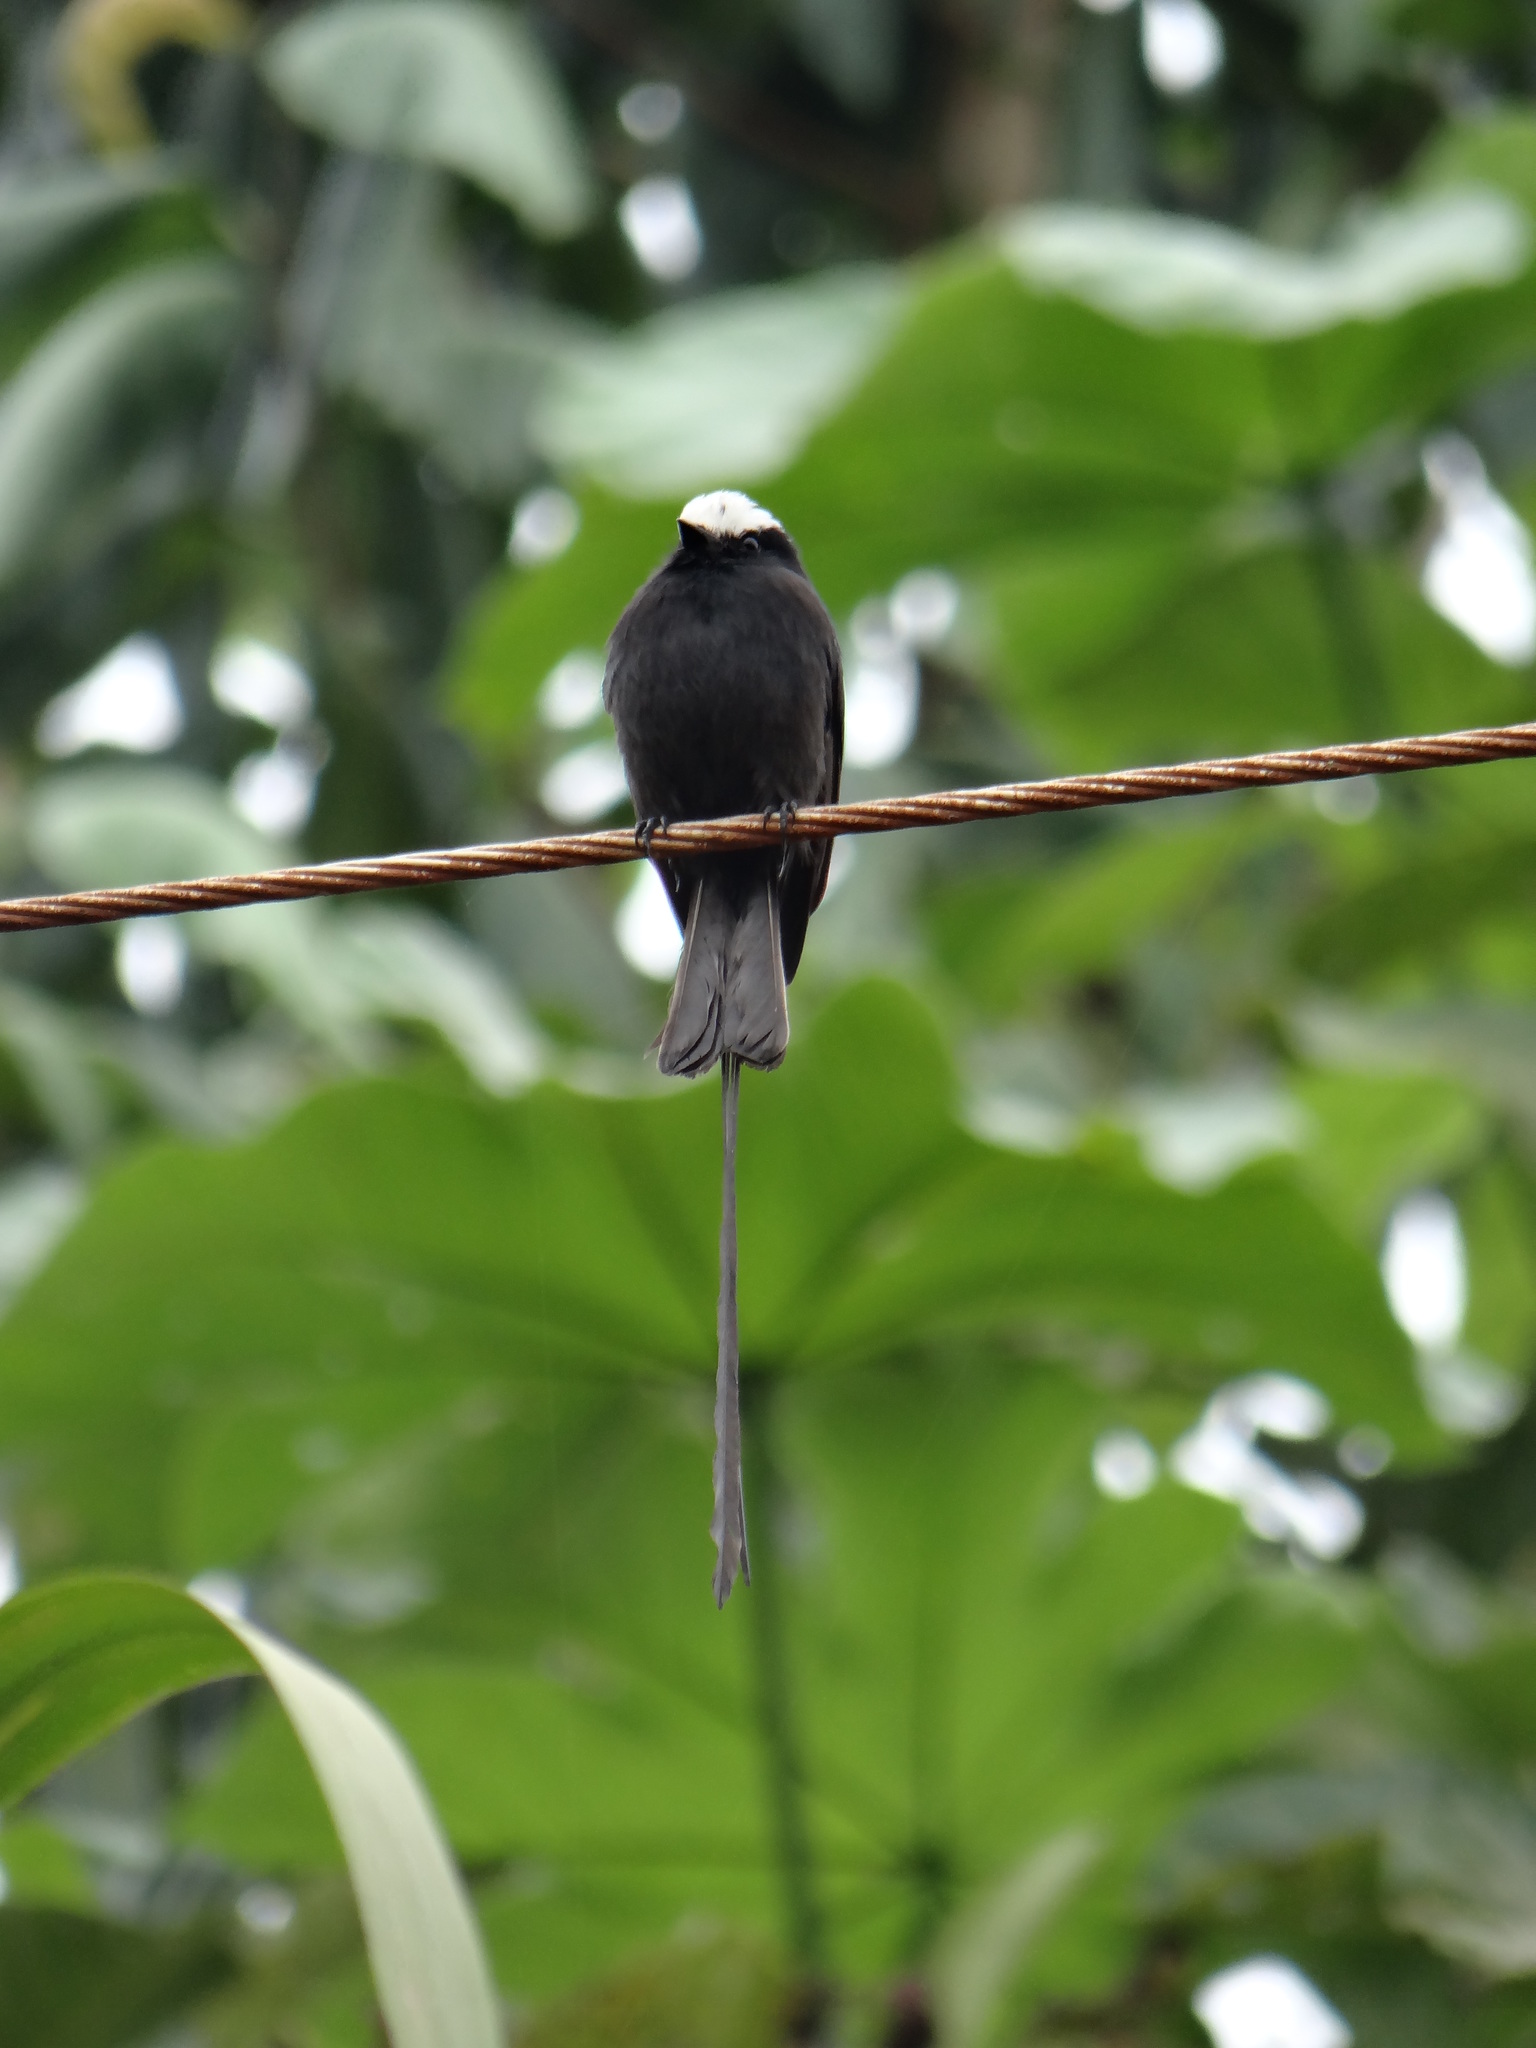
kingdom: Animalia
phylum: Chordata
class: Aves
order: Passeriformes
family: Tyrannidae
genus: Colonia
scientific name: Colonia colonus
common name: Long-tailed tyrant
